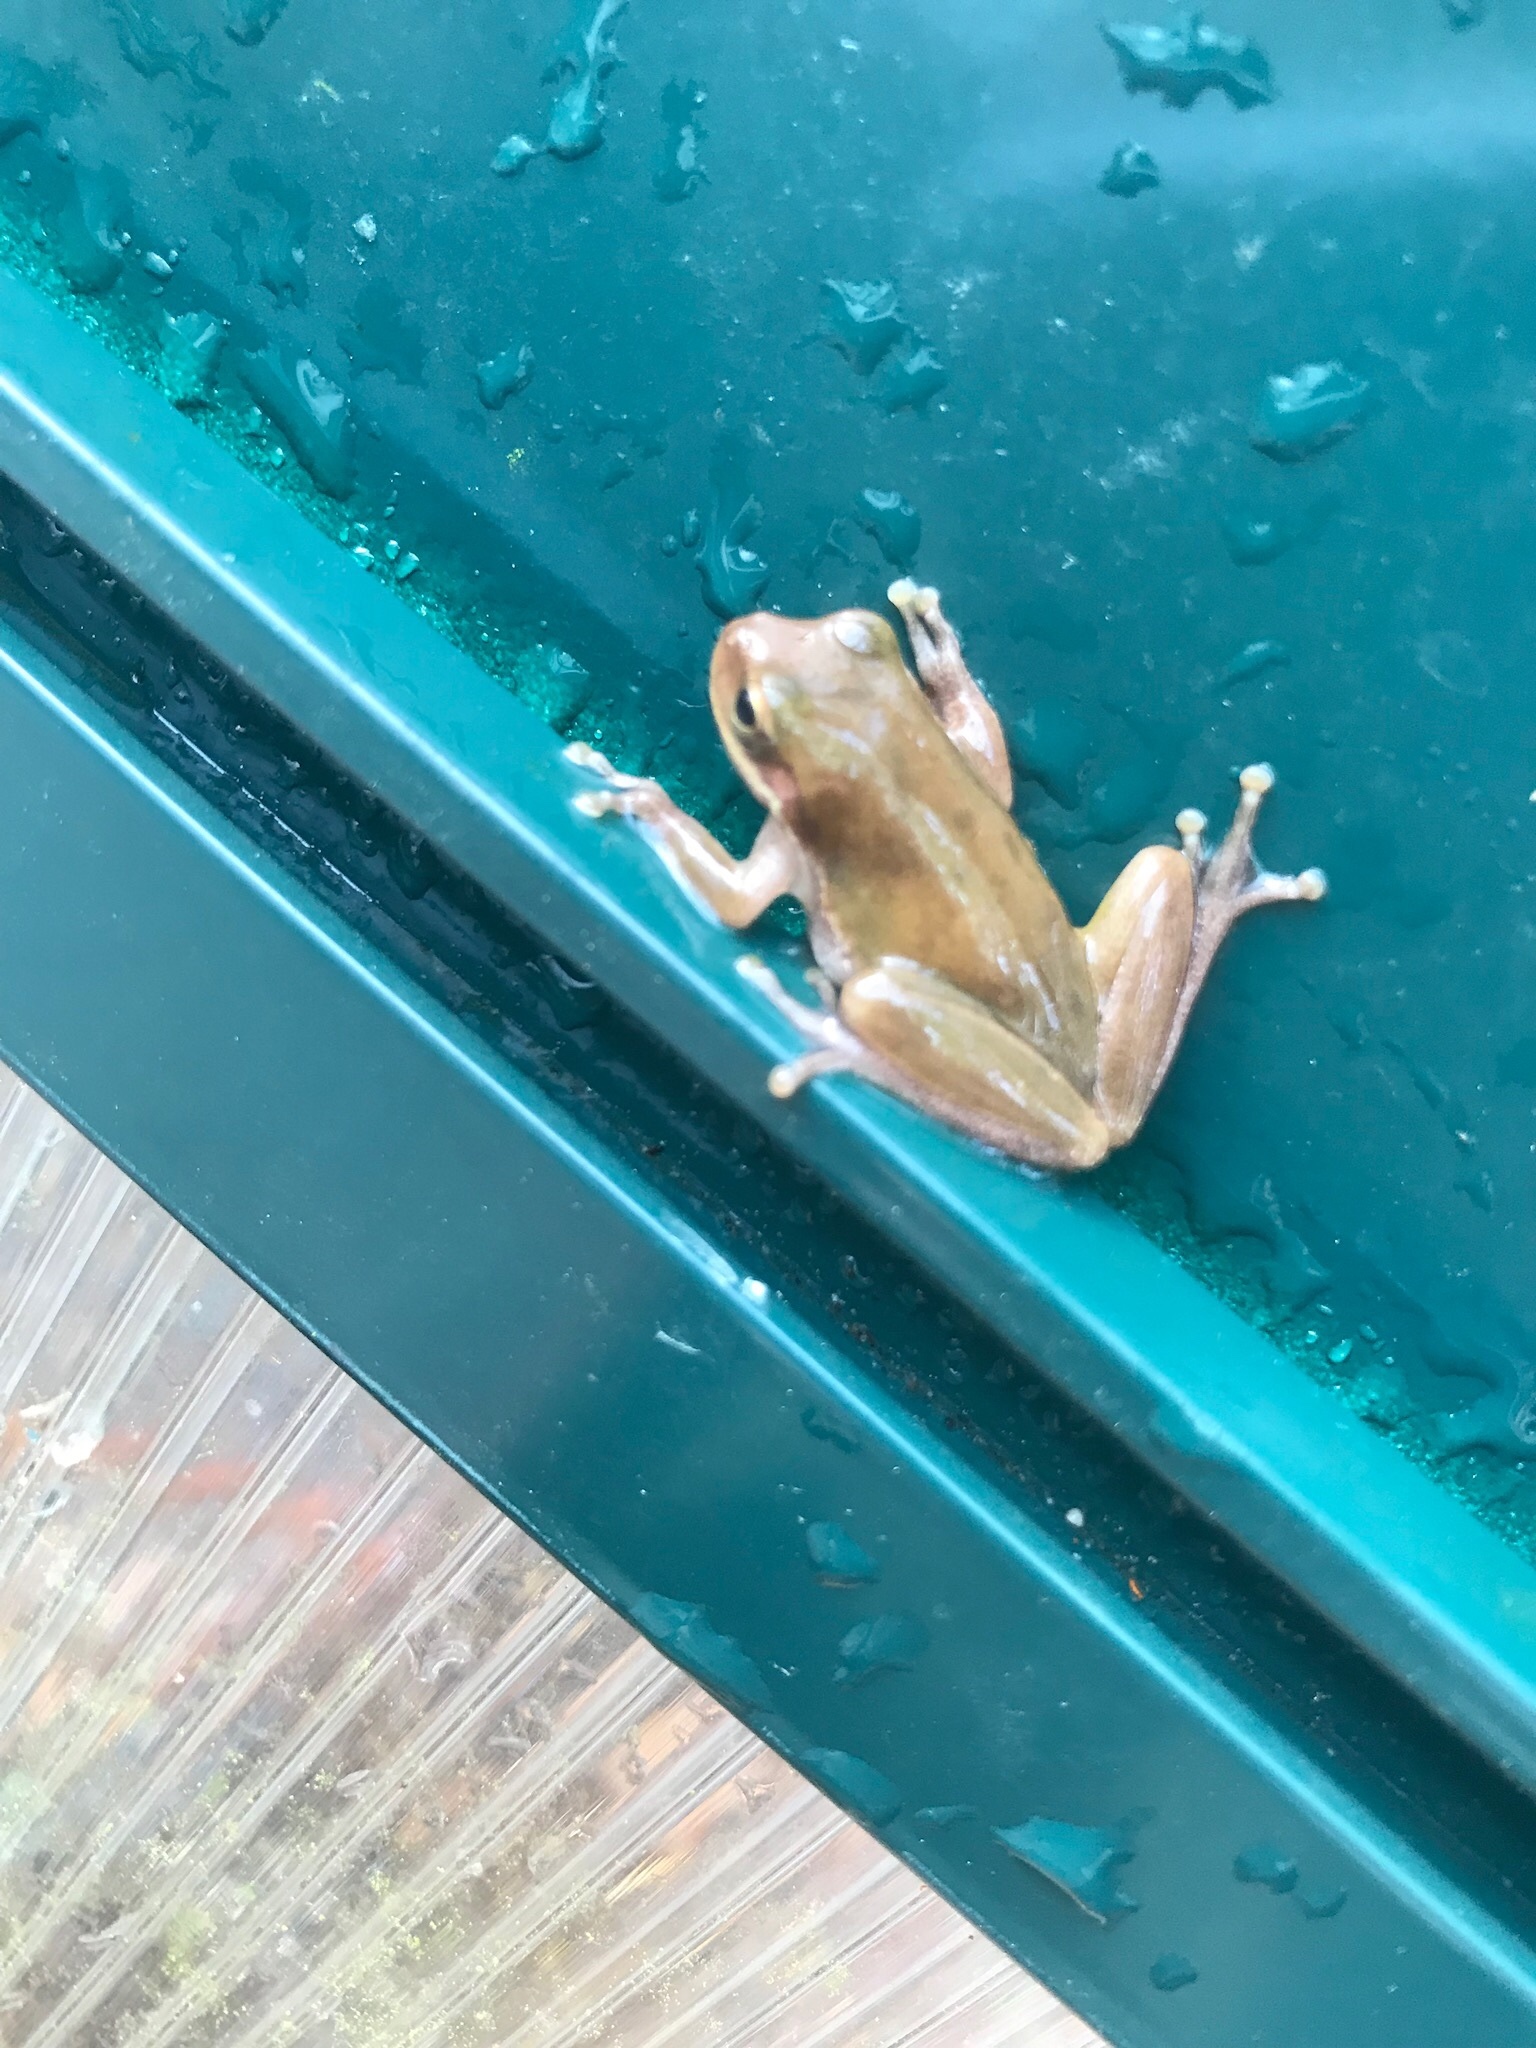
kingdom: Animalia
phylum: Chordata
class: Amphibia
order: Anura
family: Hylidae
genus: Dryophytes
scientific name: Dryophytes squirellus
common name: Squirrel treefrog
